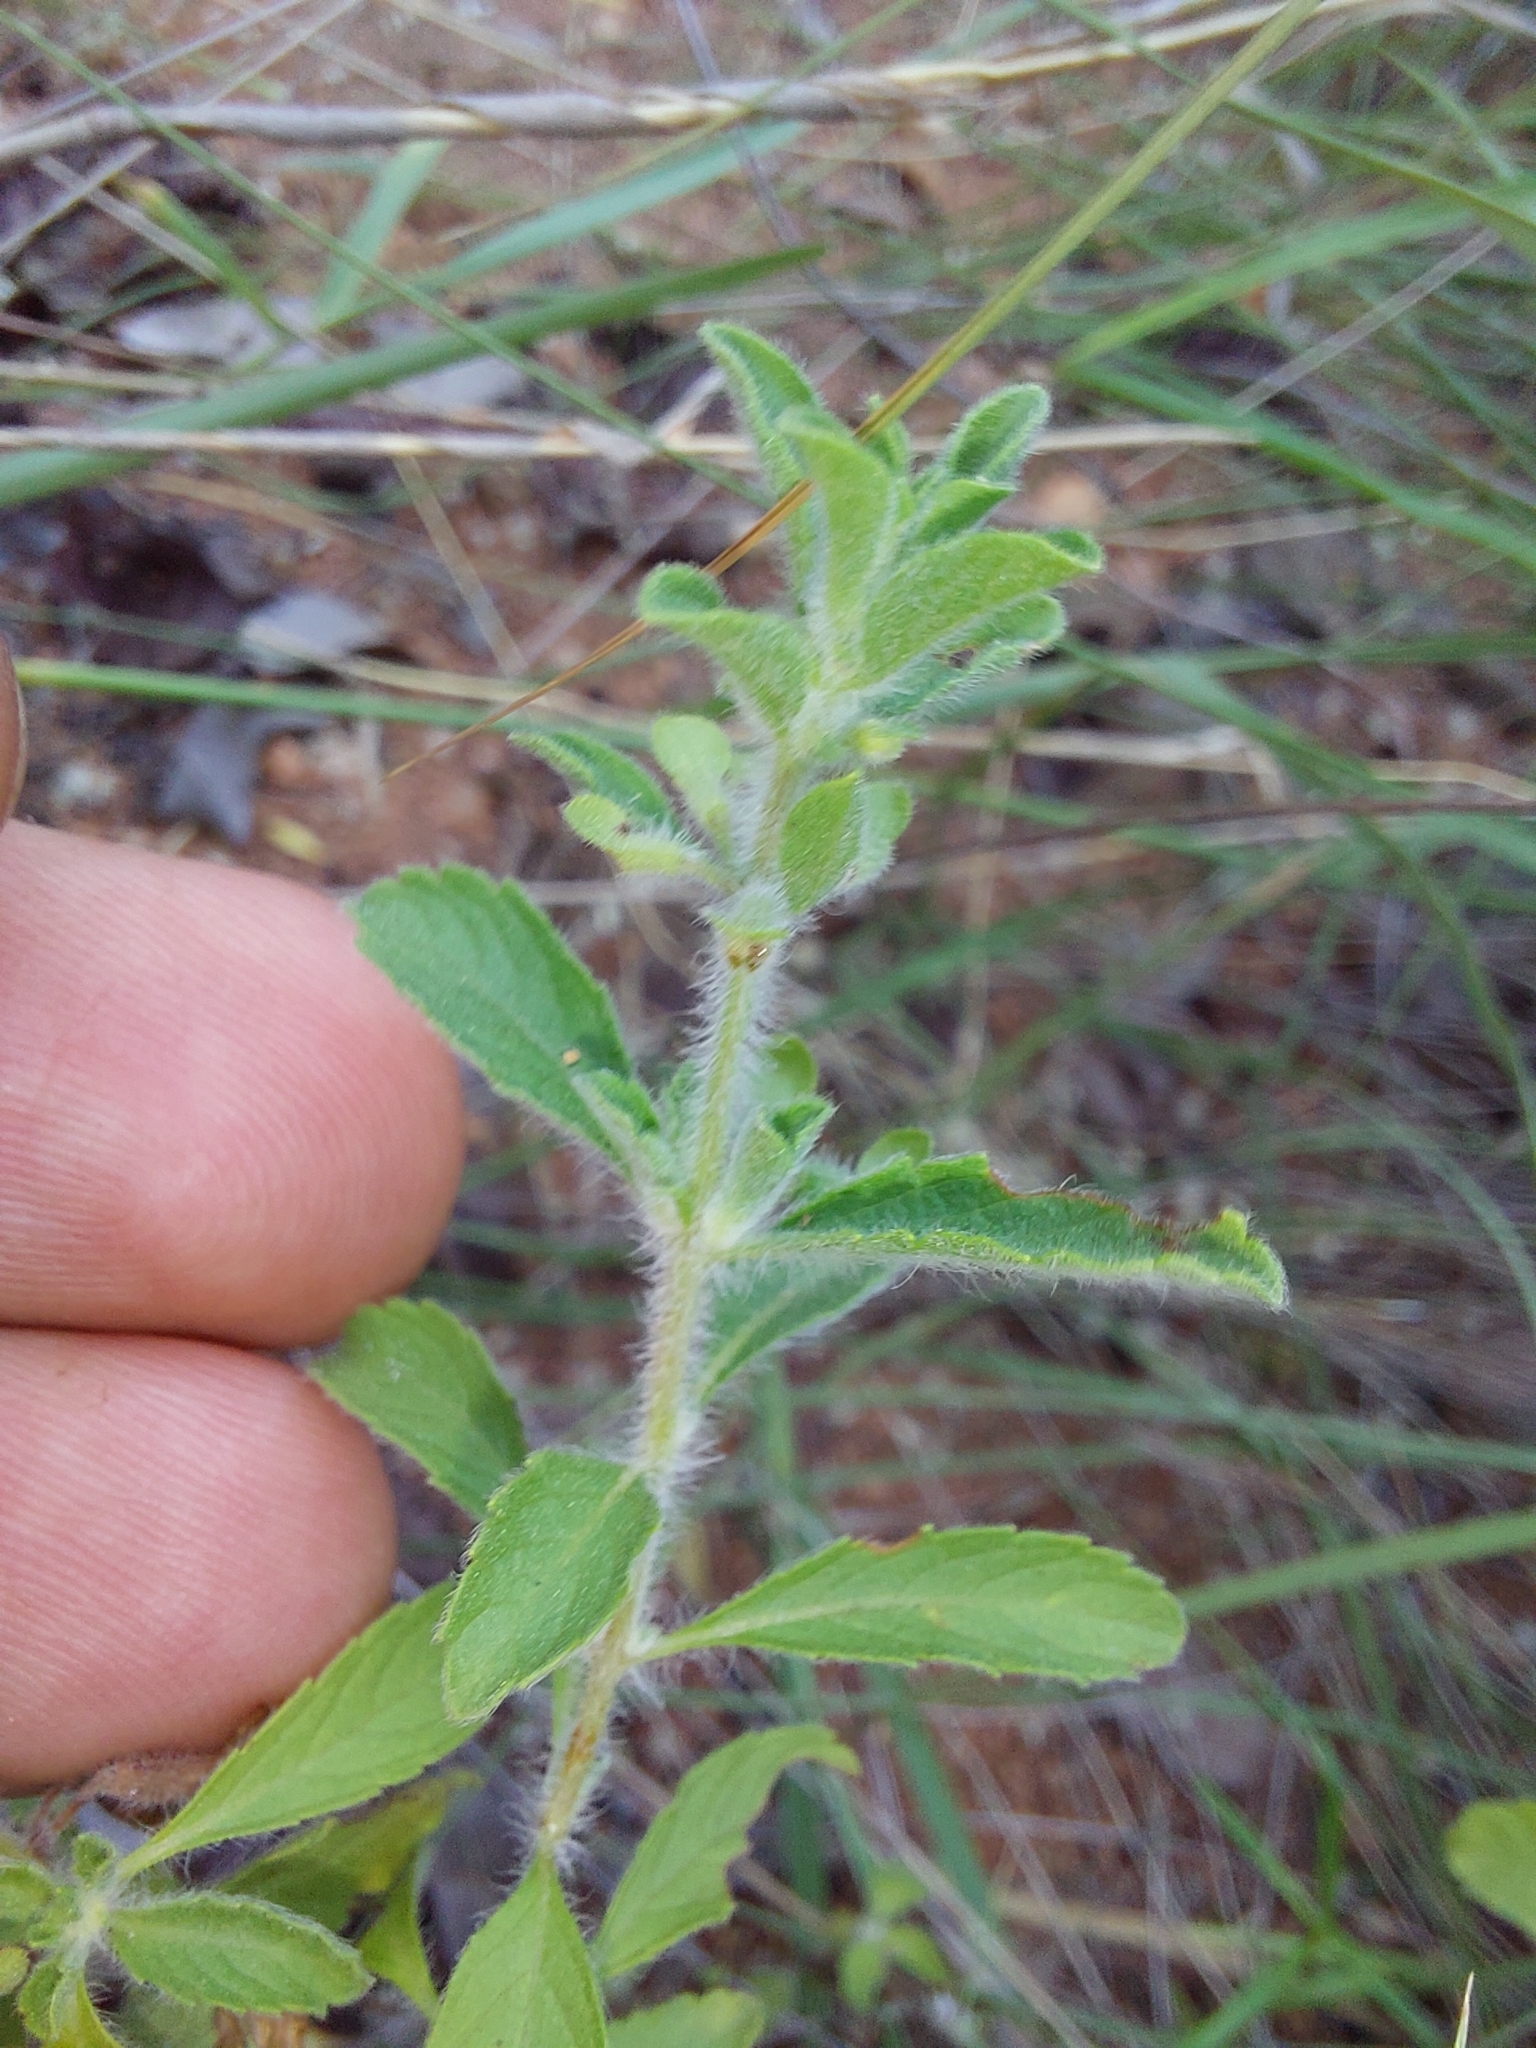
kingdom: Plantae
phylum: Tracheophyta
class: Magnoliopsida
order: Lamiales
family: Lamiaceae
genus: Endostemon
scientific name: Endostemon tereticaulis
